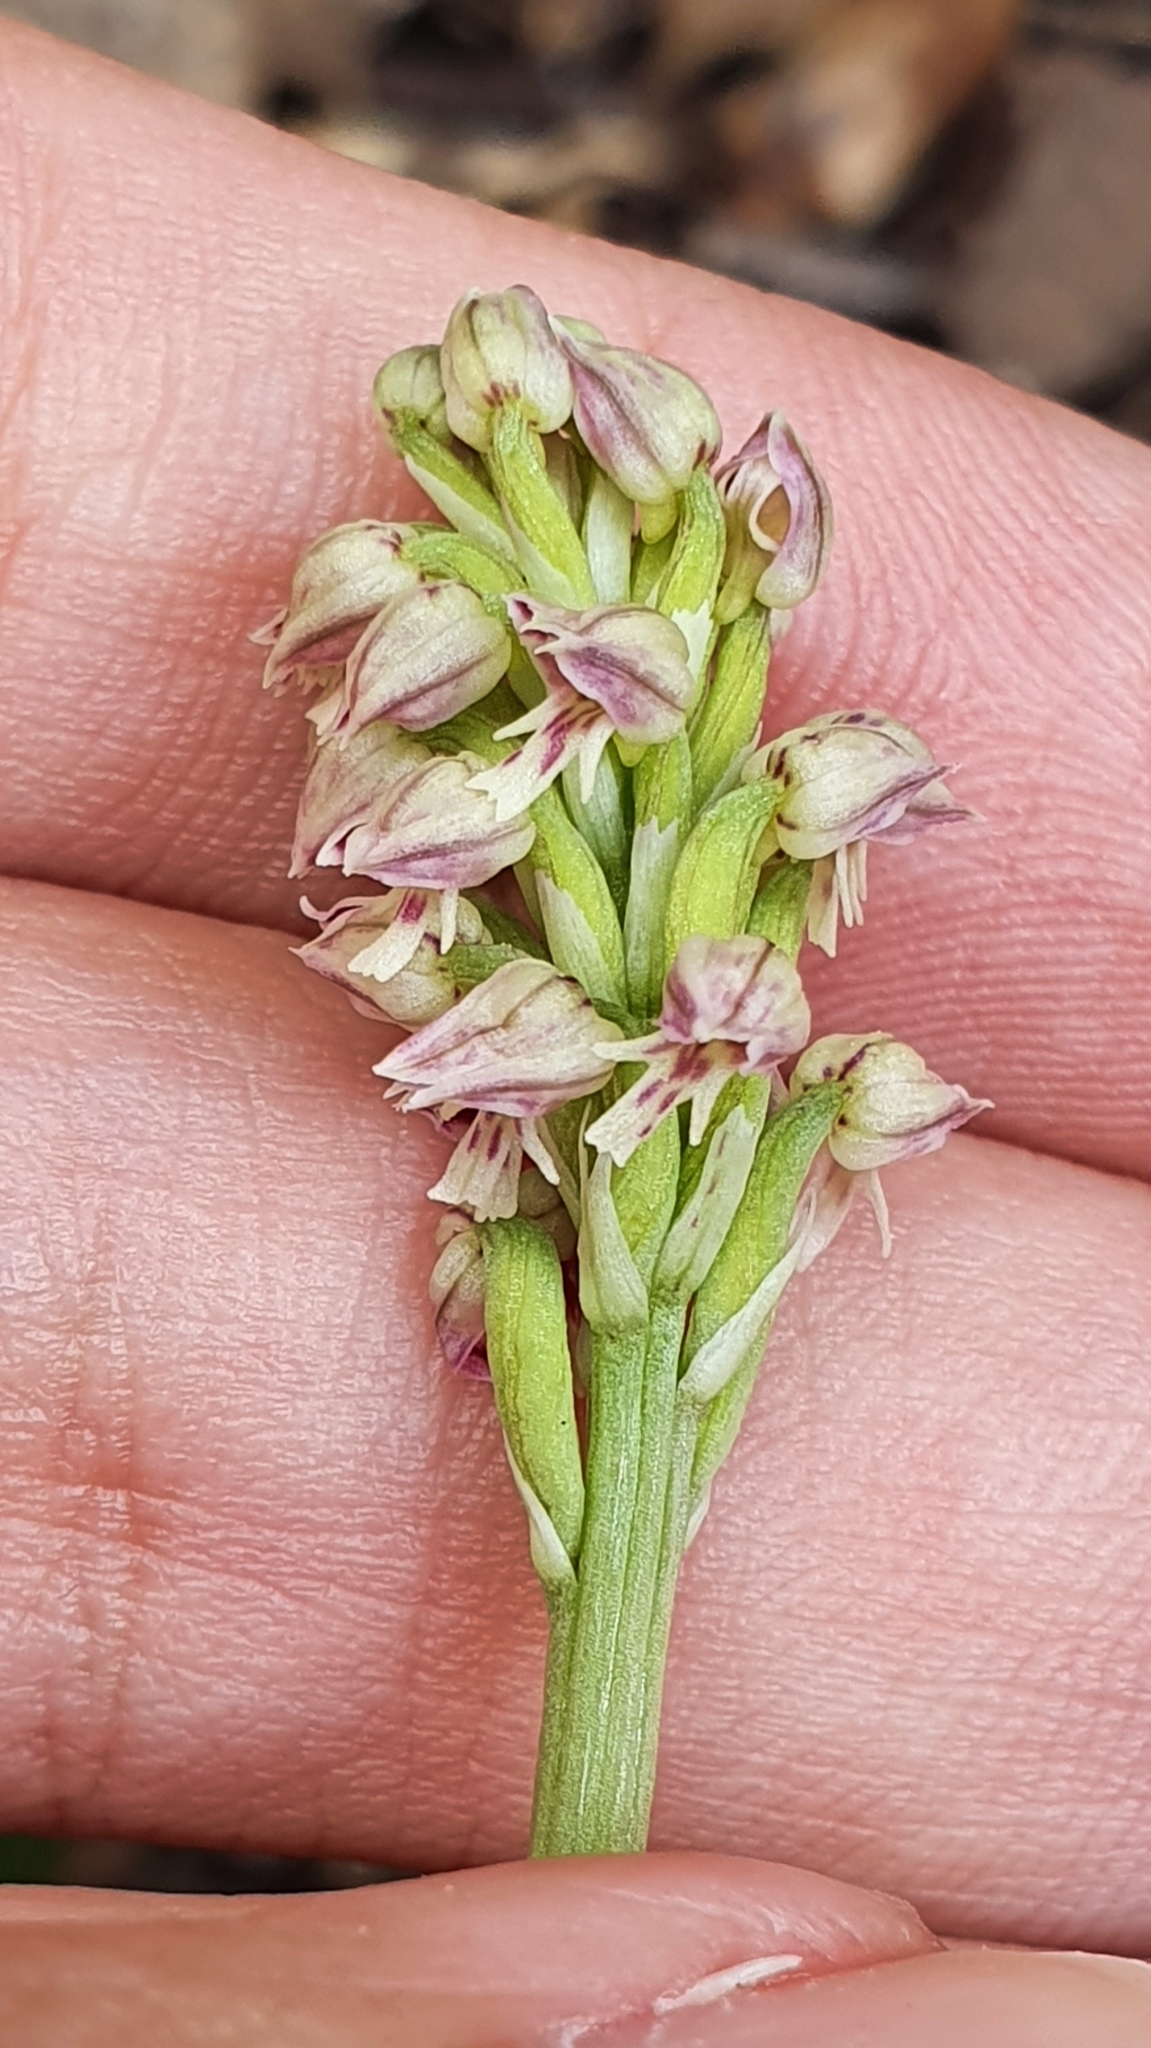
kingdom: Plantae
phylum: Tracheophyta
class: Liliopsida
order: Asparagales
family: Orchidaceae
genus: Neotinea
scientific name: Neotinea maculata
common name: Dense-flowered orchid
